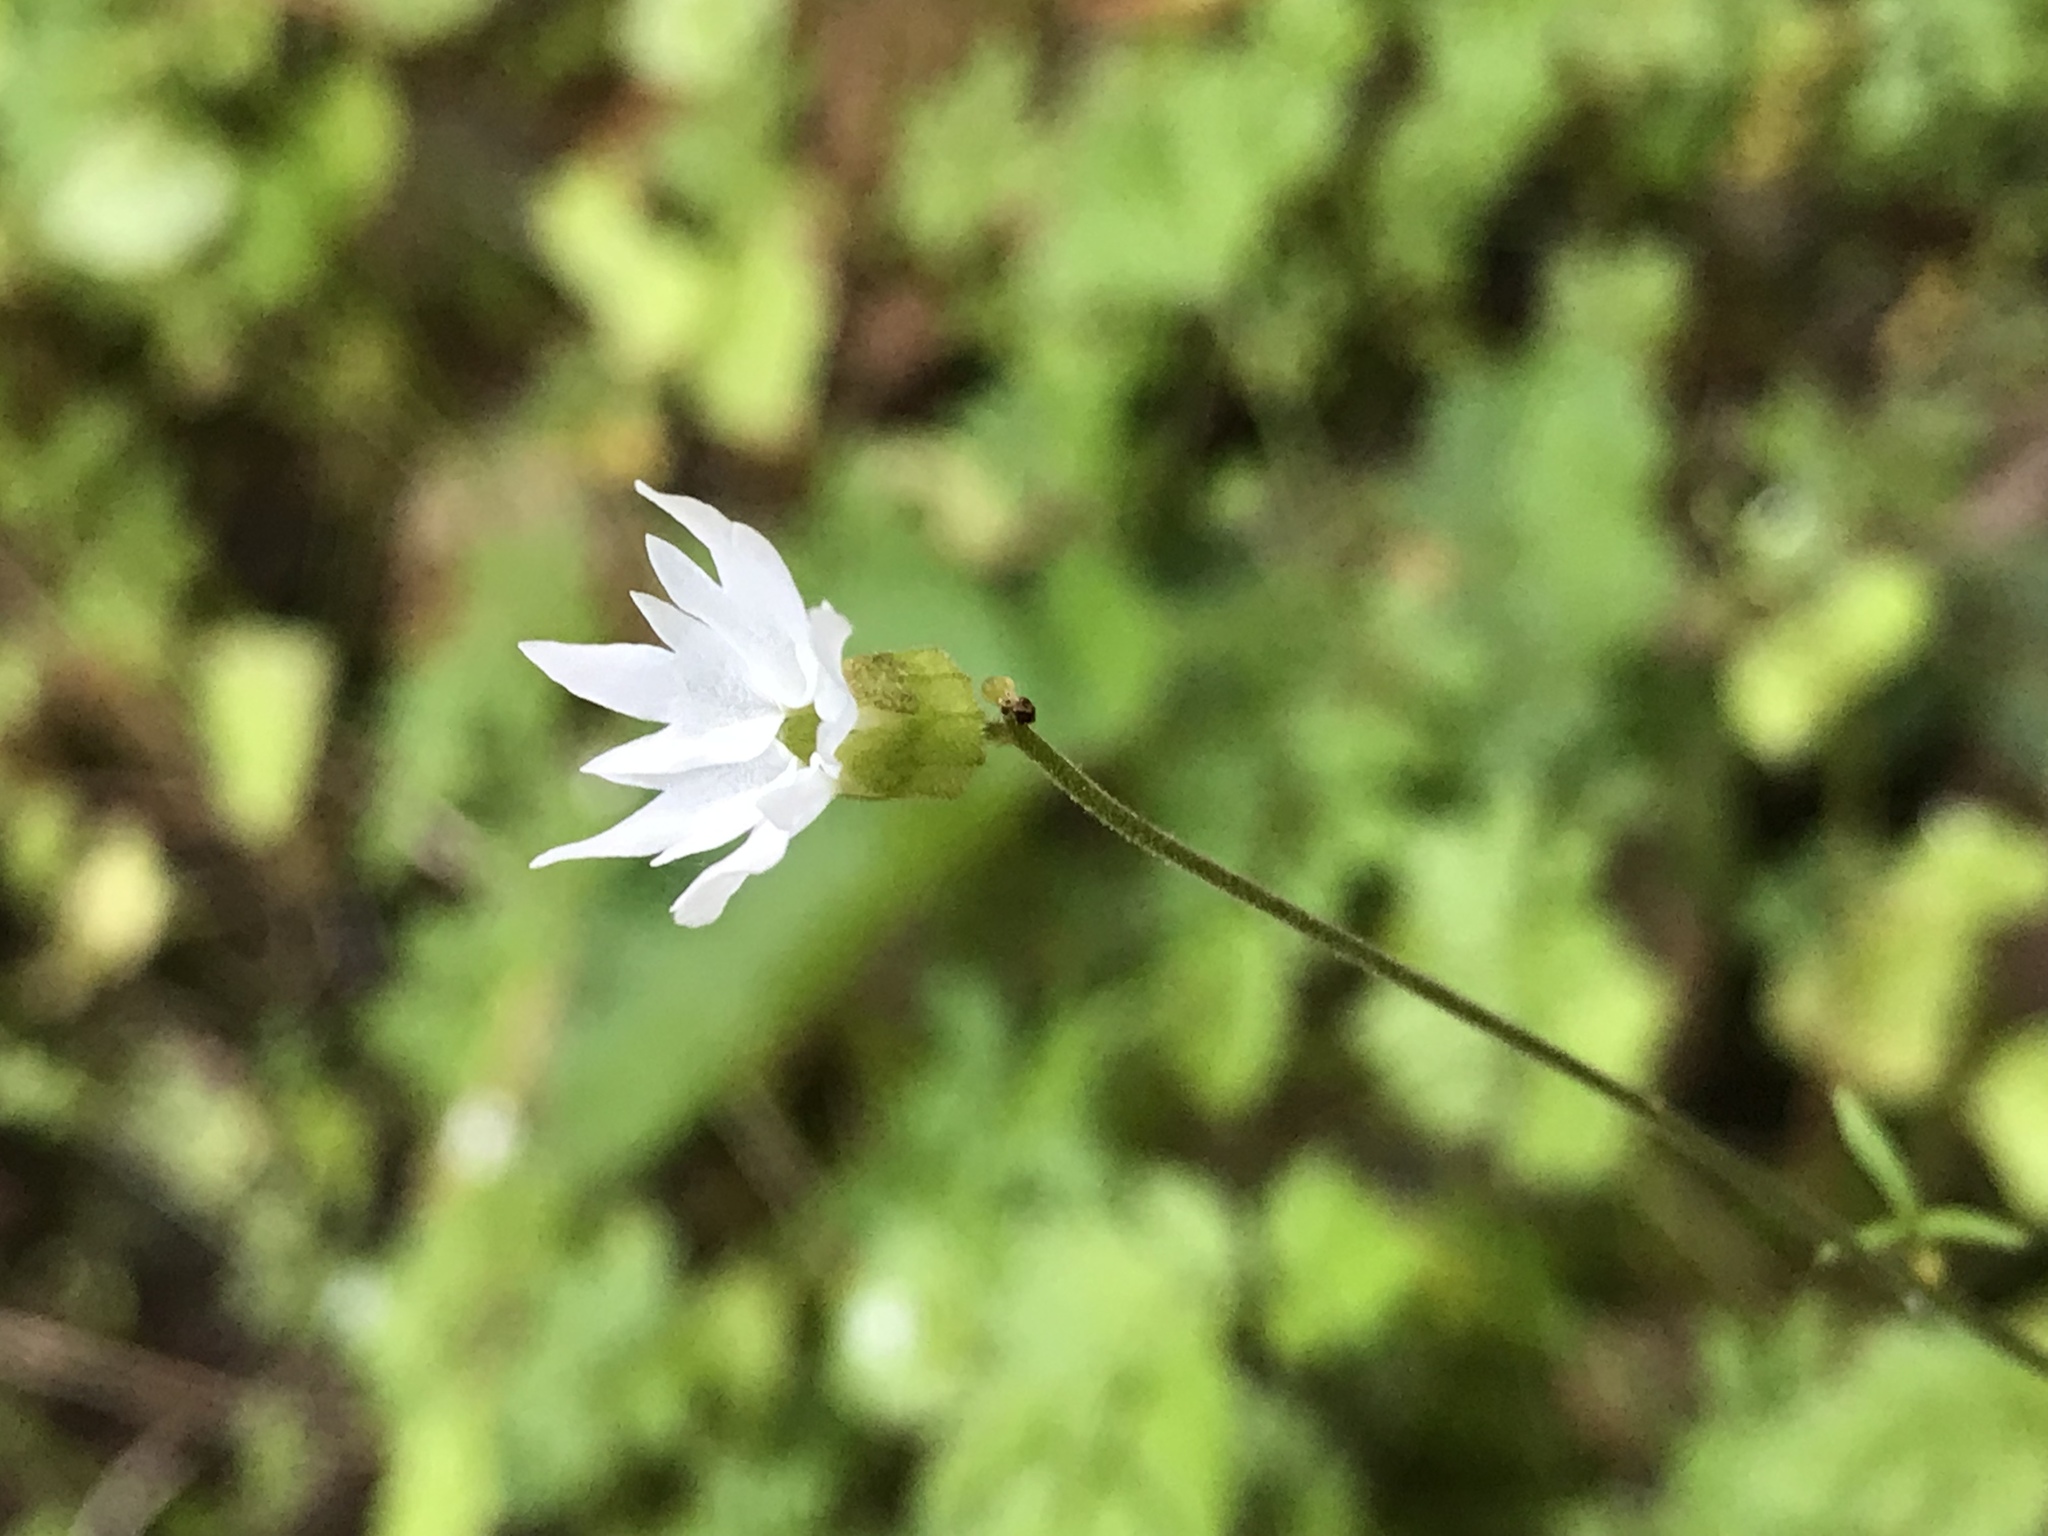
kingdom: Plantae
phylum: Tracheophyta
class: Magnoliopsida
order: Saxifragales
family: Saxifragaceae
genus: Lithophragma
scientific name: Lithophragma heterophyllum
